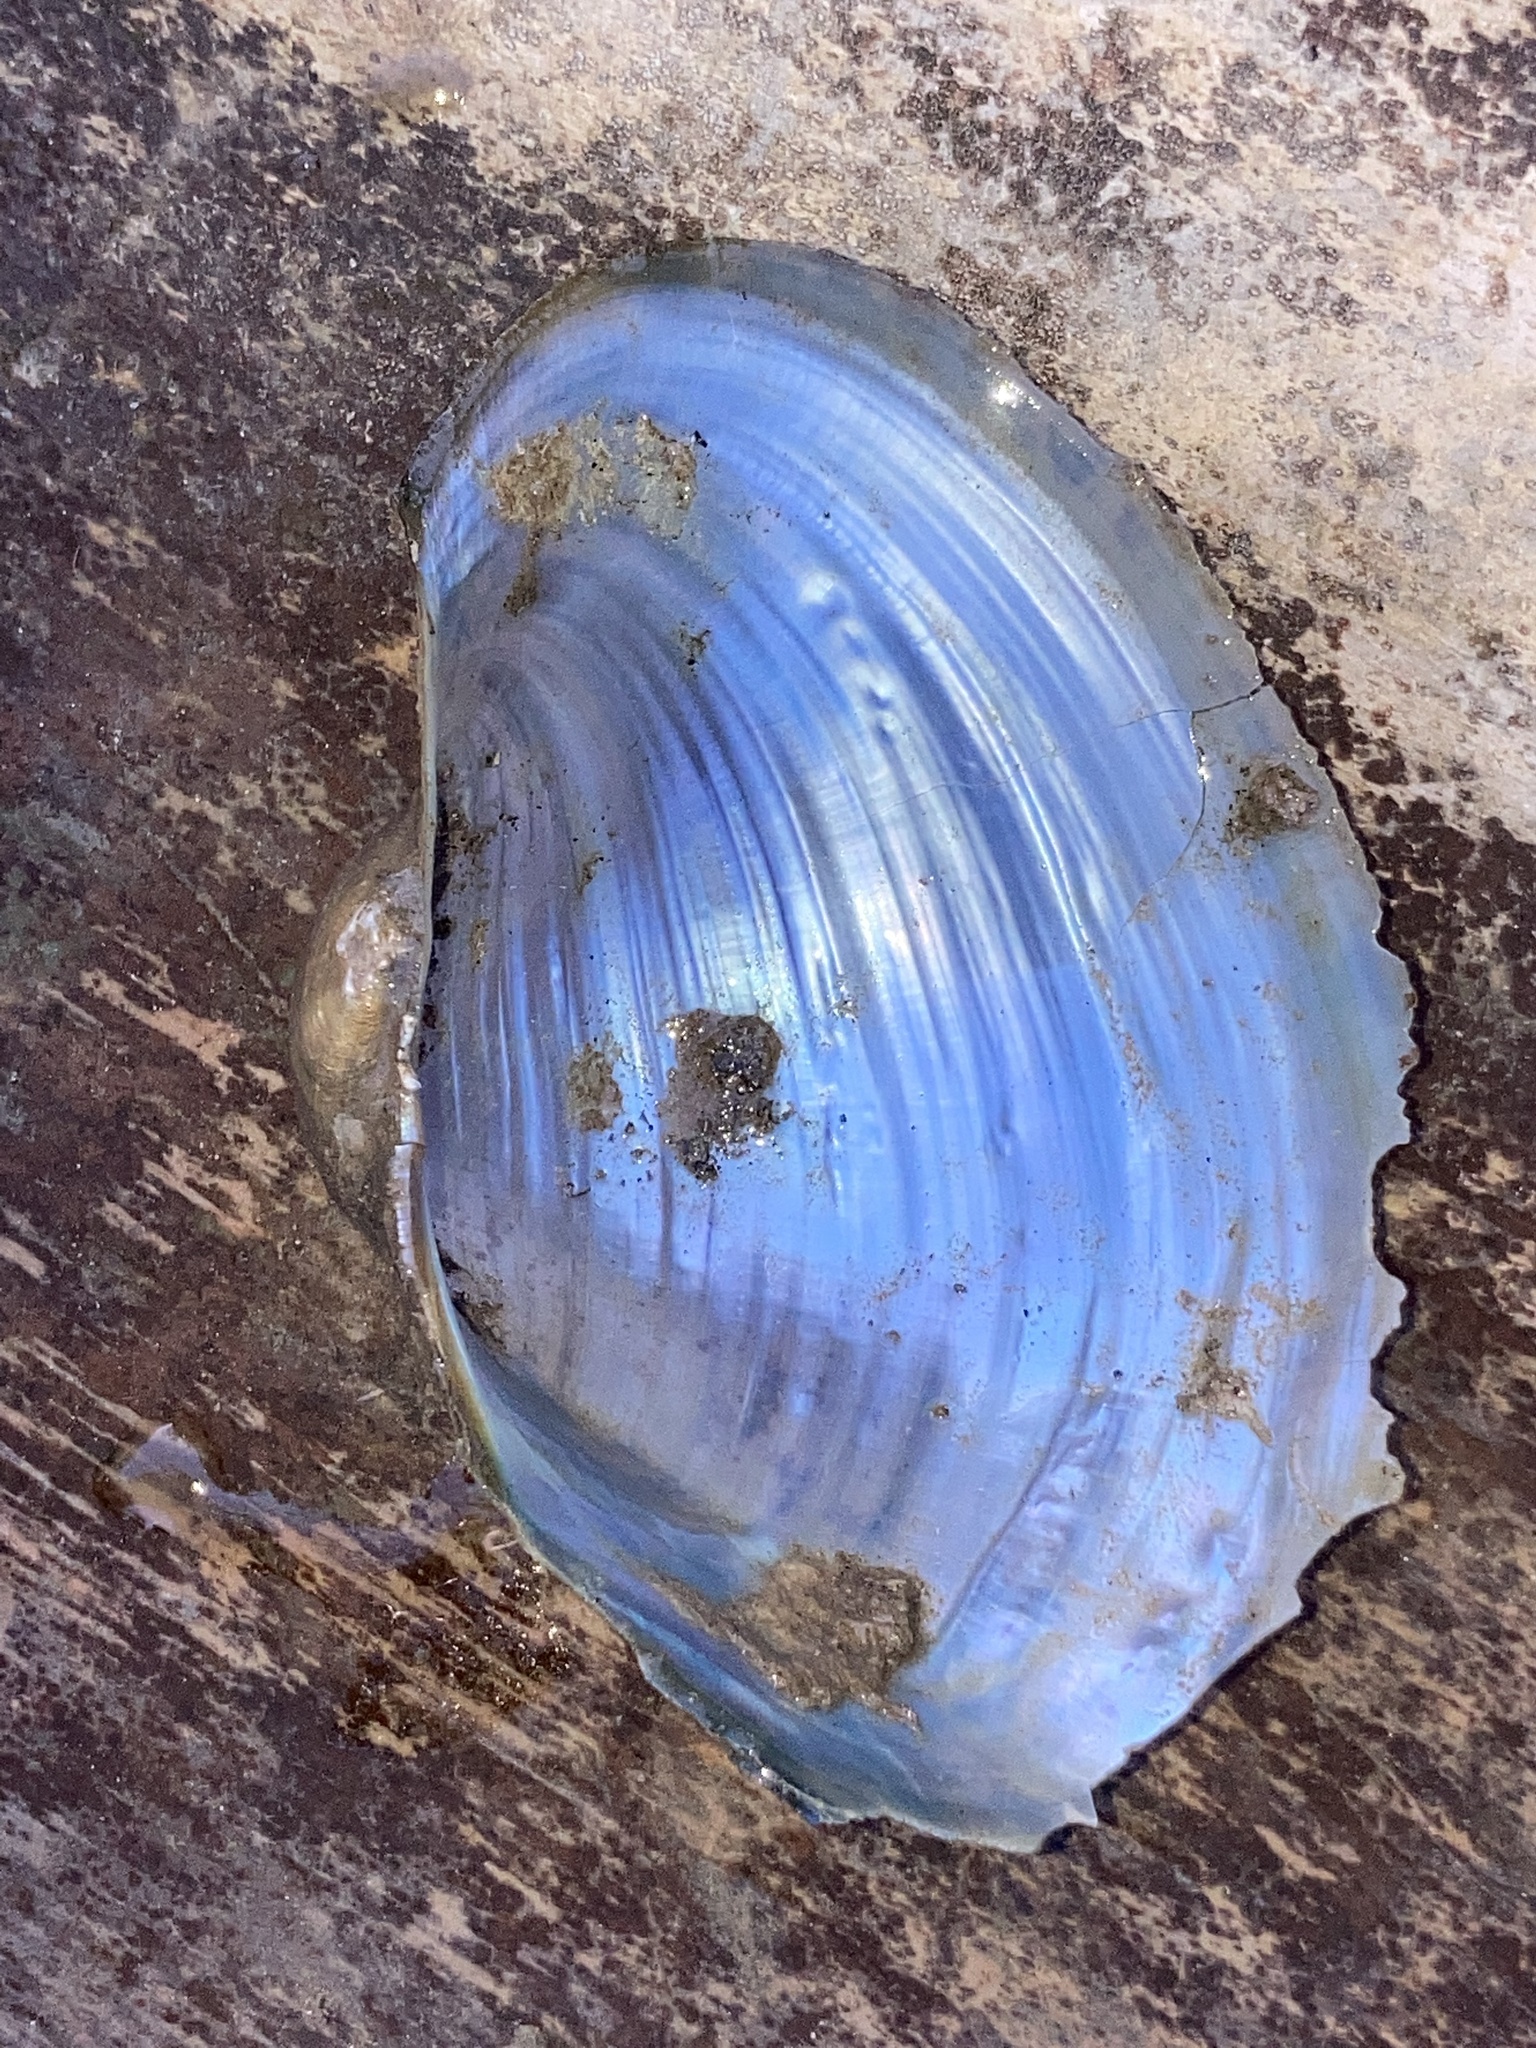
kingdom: Animalia
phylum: Mollusca
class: Bivalvia
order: Unionida
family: Unionidae
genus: Pyganodon
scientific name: Pyganodon grandis
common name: Giant floater
